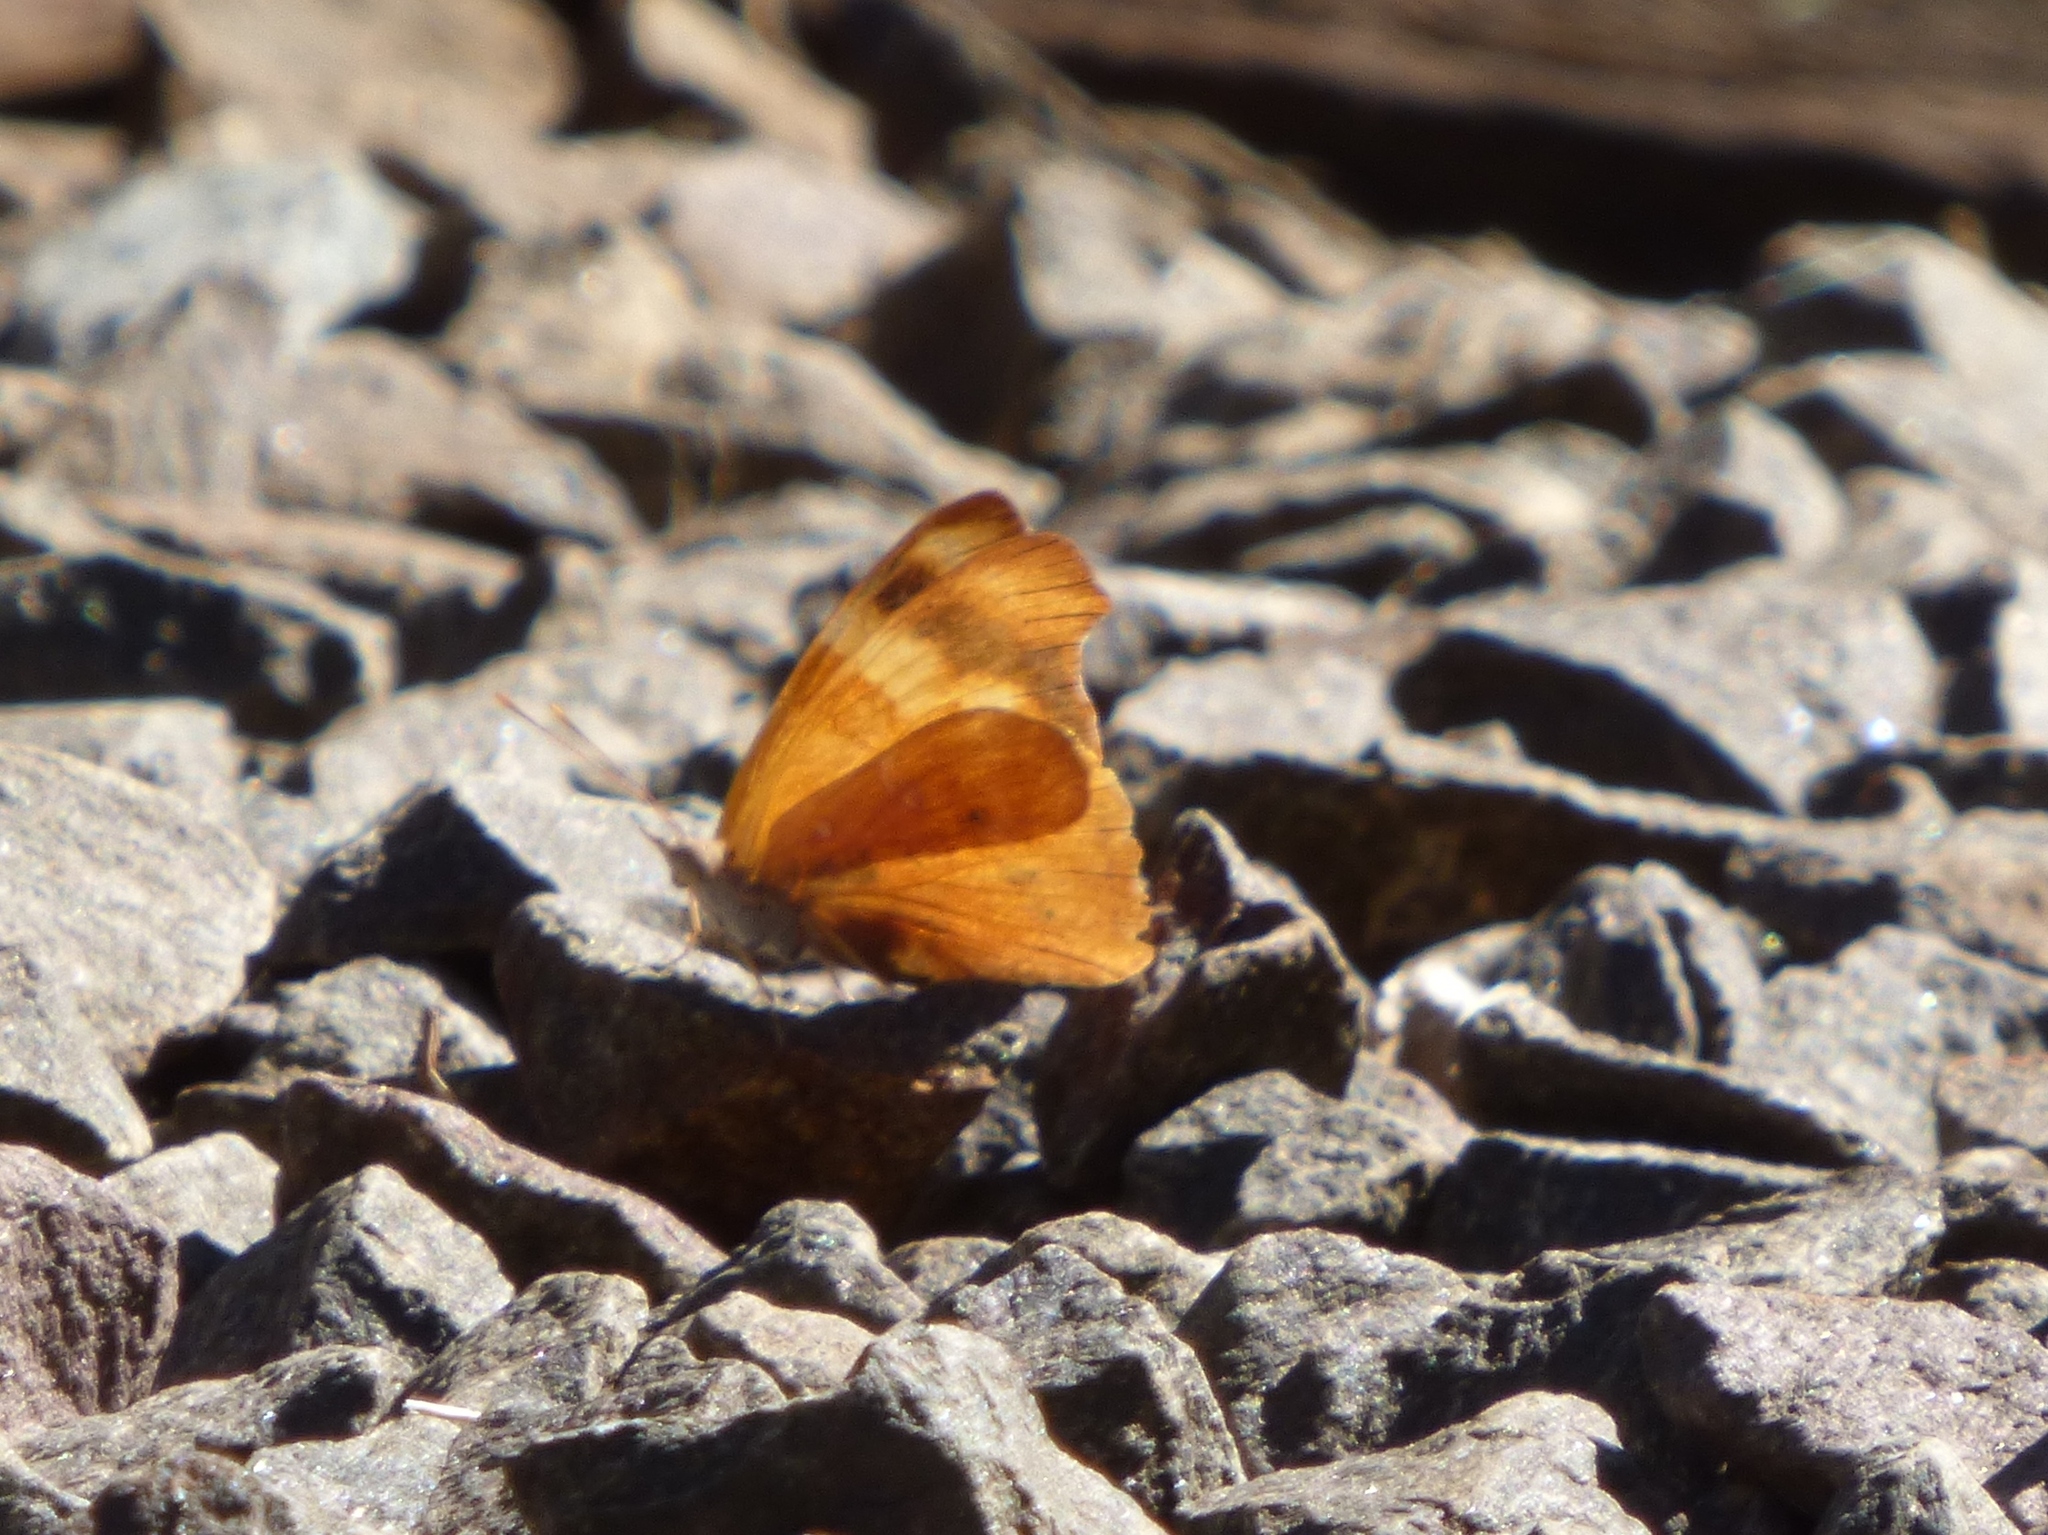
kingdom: Animalia
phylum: Arthropoda
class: Insecta
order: Lepidoptera
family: Nymphalidae
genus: Temenis
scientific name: Temenis laothoe
